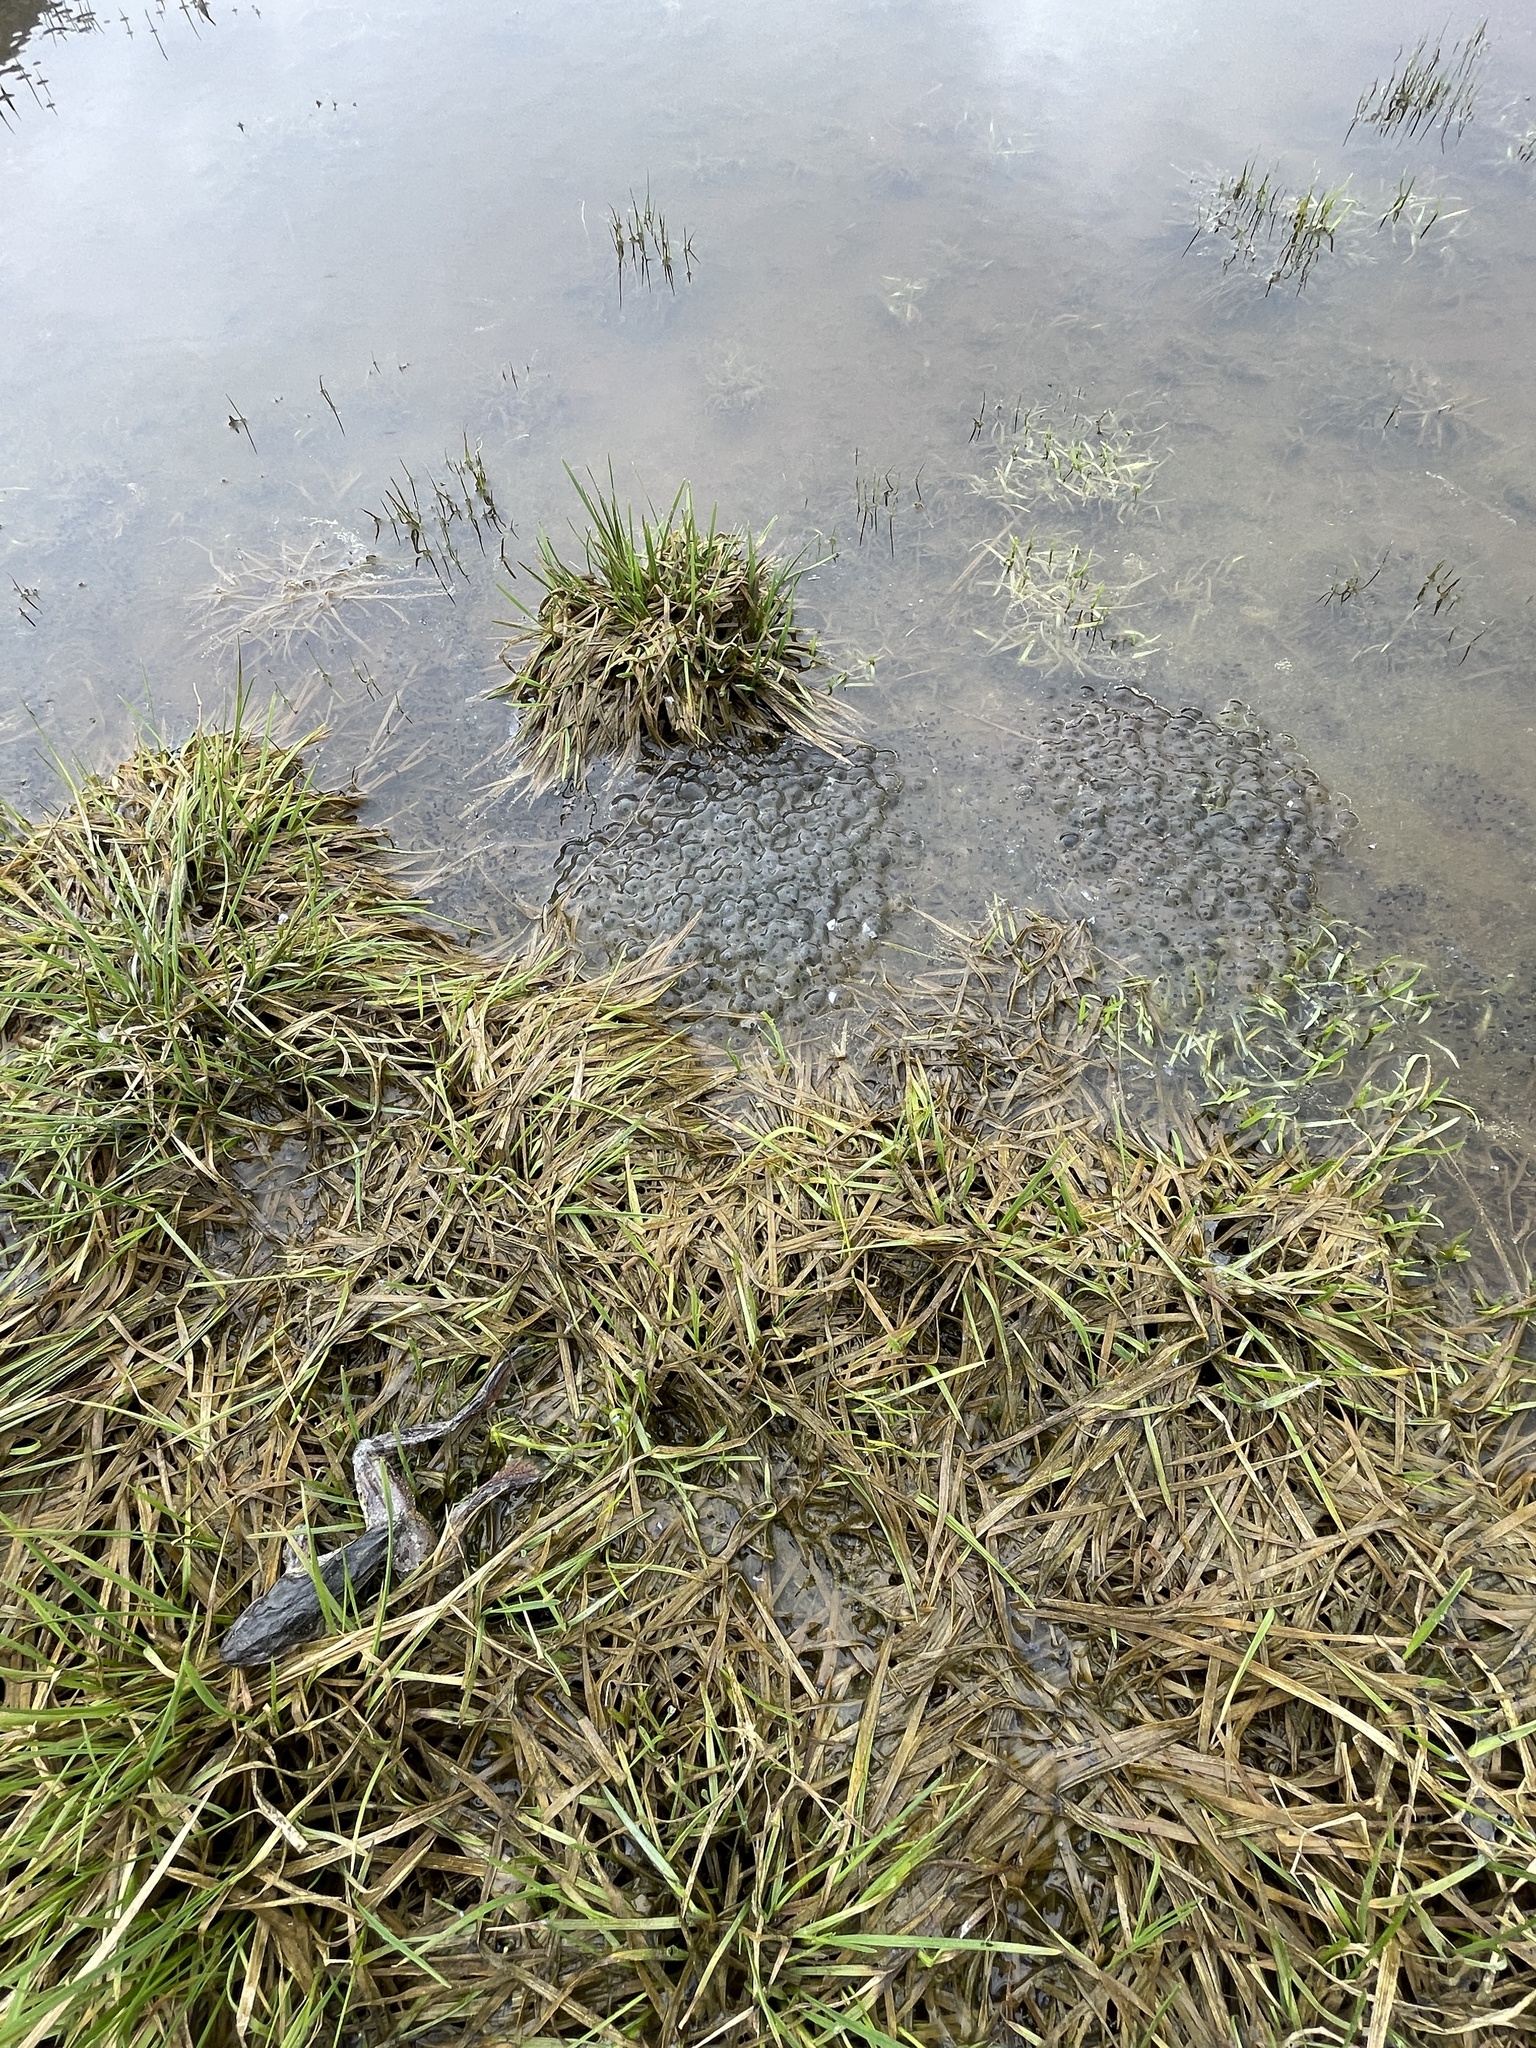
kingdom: Animalia
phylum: Chordata
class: Amphibia
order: Anura
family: Ranidae
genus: Rana
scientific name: Rana temporaria
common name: Common frog
